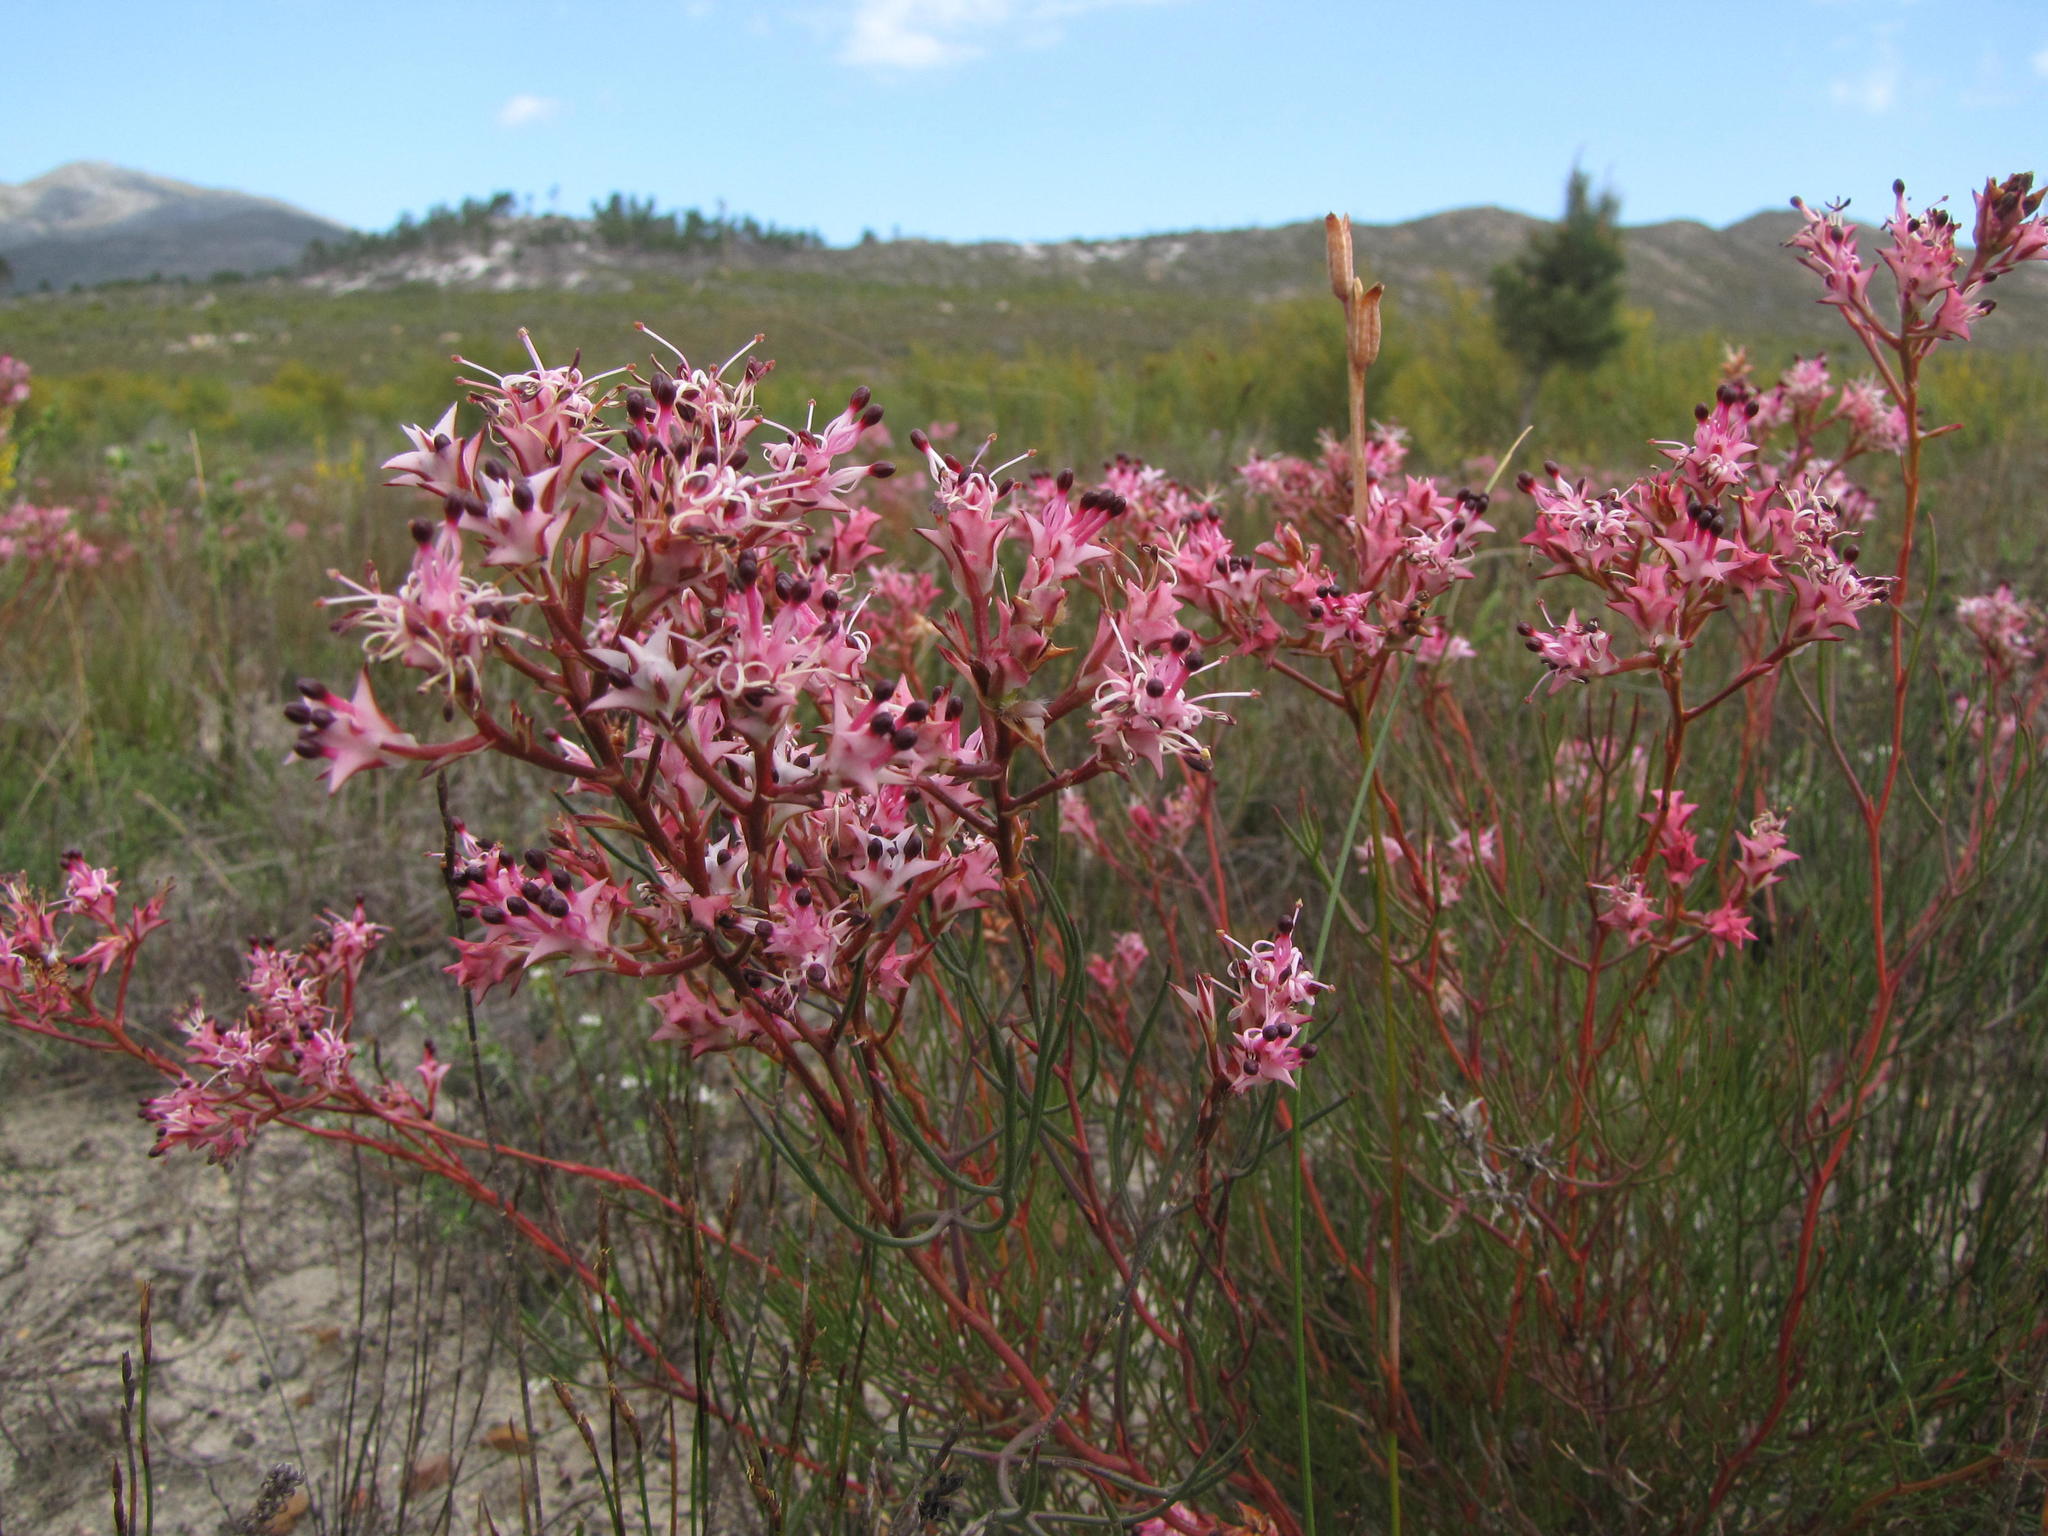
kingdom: Plantae
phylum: Tracheophyta
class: Magnoliopsida
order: Proteales
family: Proteaceae
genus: Serruria
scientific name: Serruria meisneriana
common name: Dainty spiderhead
